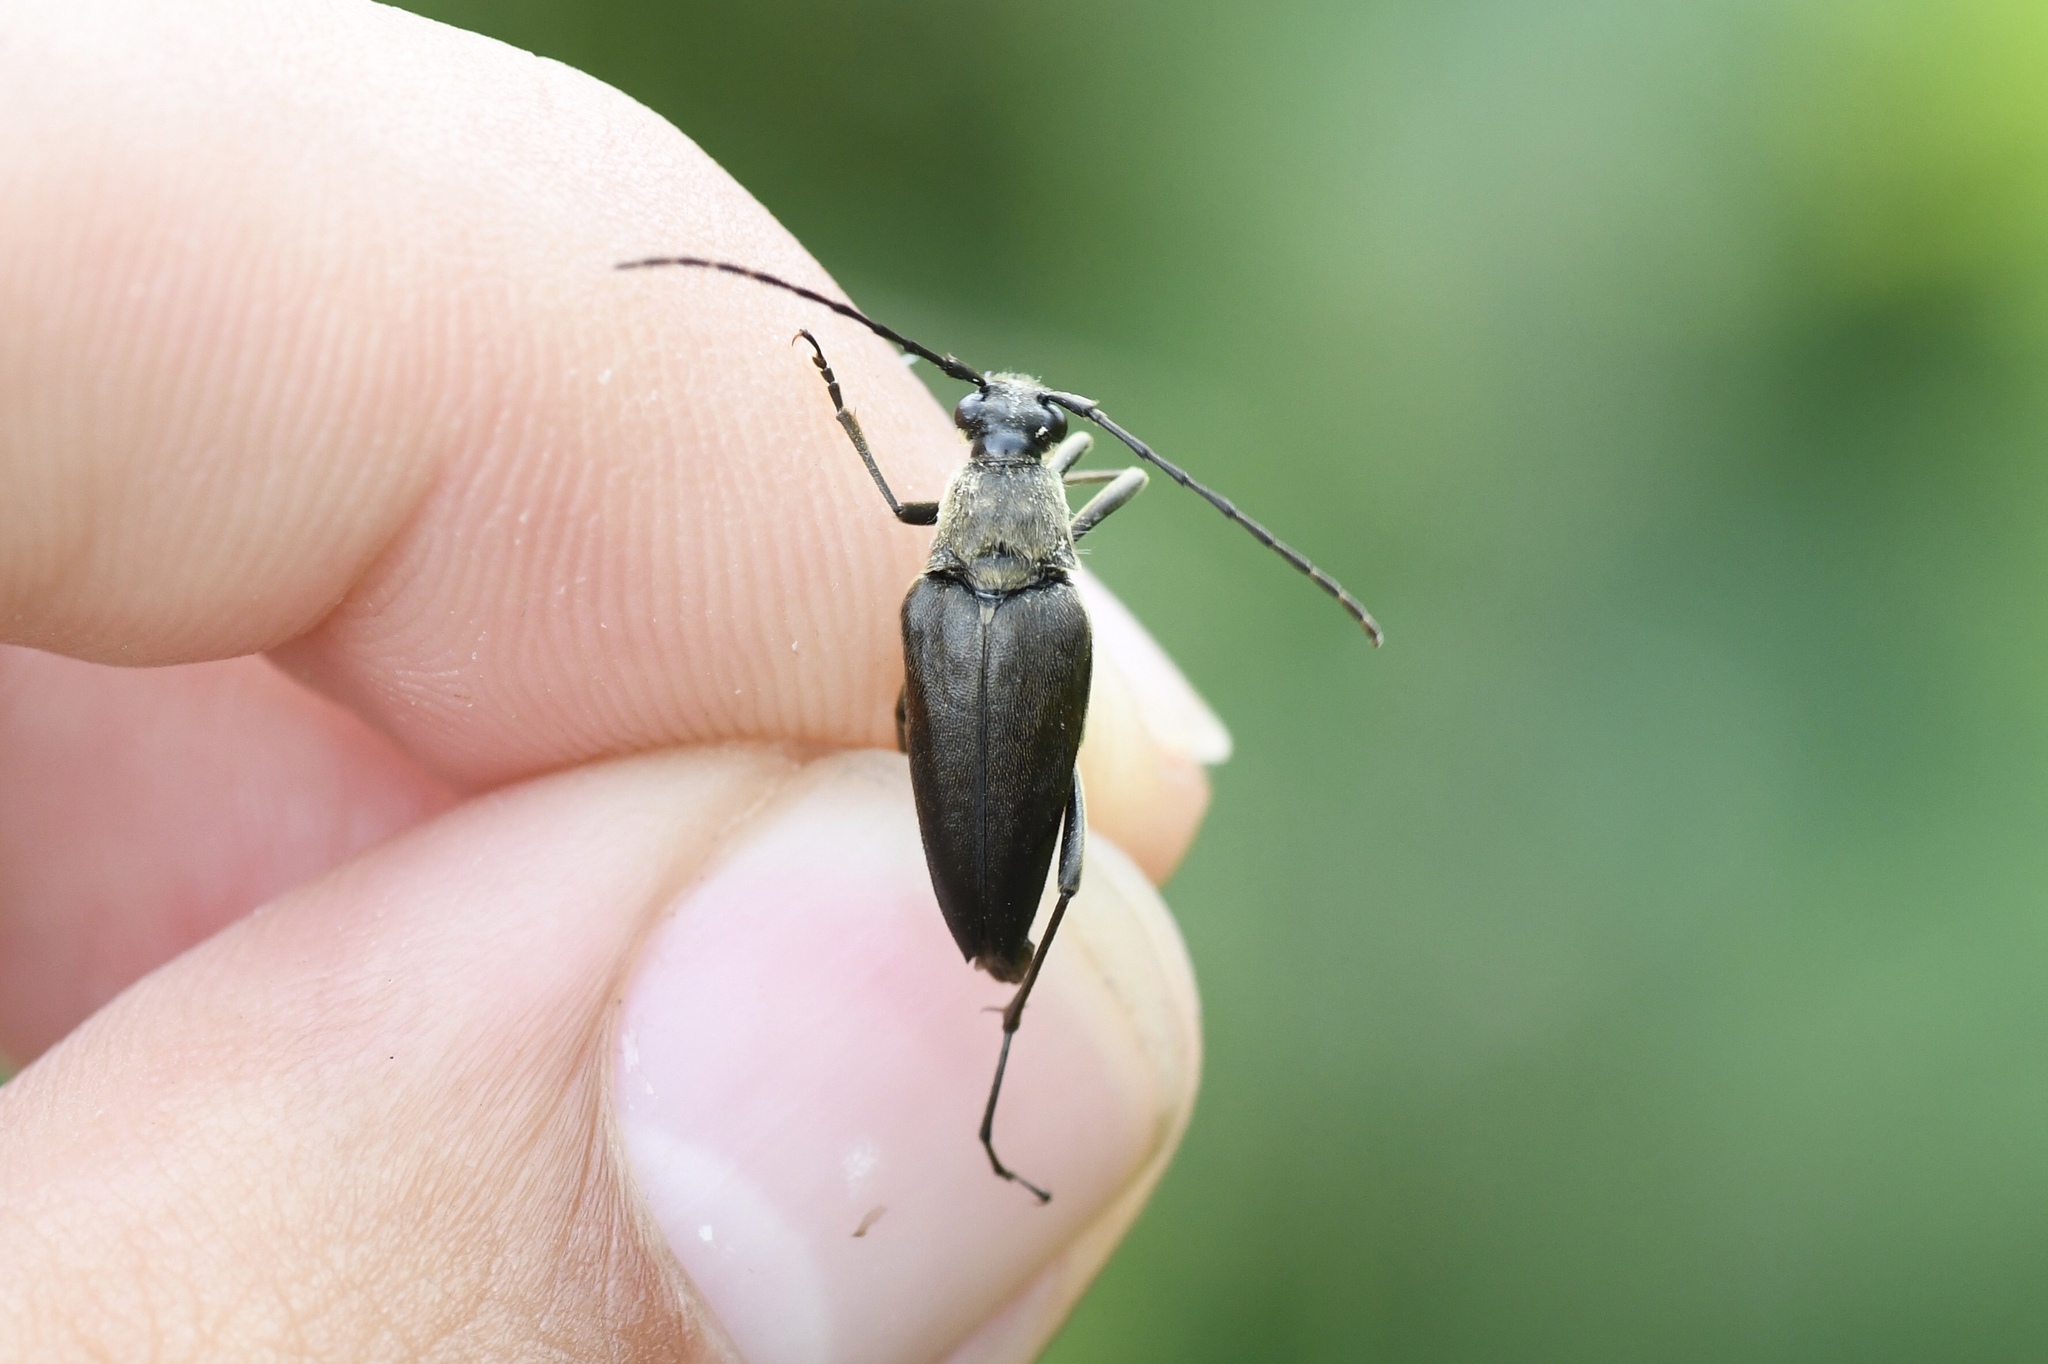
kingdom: Animalia
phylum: Arthropoda
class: Insecta
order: Coleoptera
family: Cerambycidae
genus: Etorofus
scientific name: Etorofus
